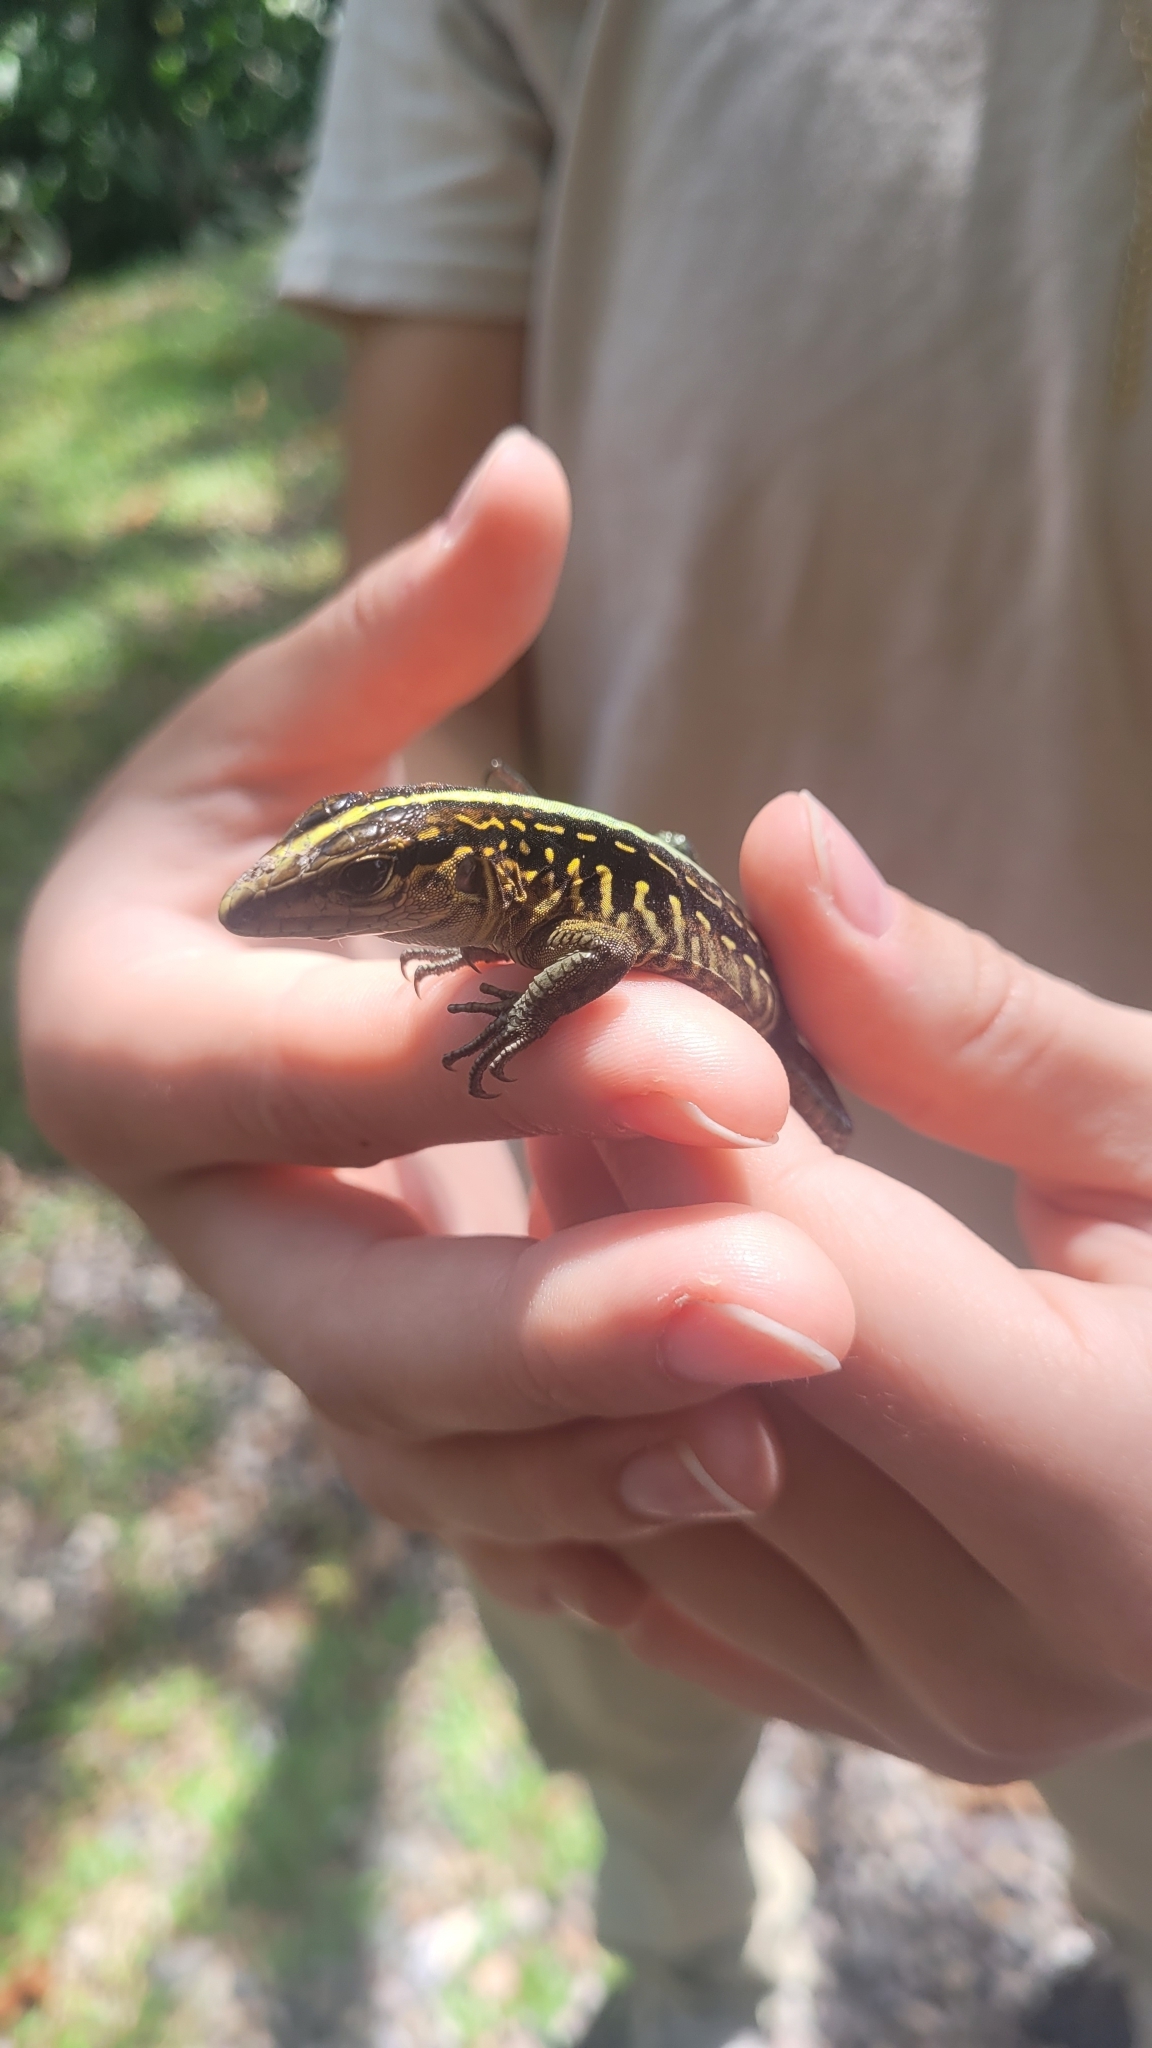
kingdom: Animalia
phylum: Chordata
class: Squamata
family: Teiidae
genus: Holcosus
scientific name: Holcosus festivus
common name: Middle american ameiva
